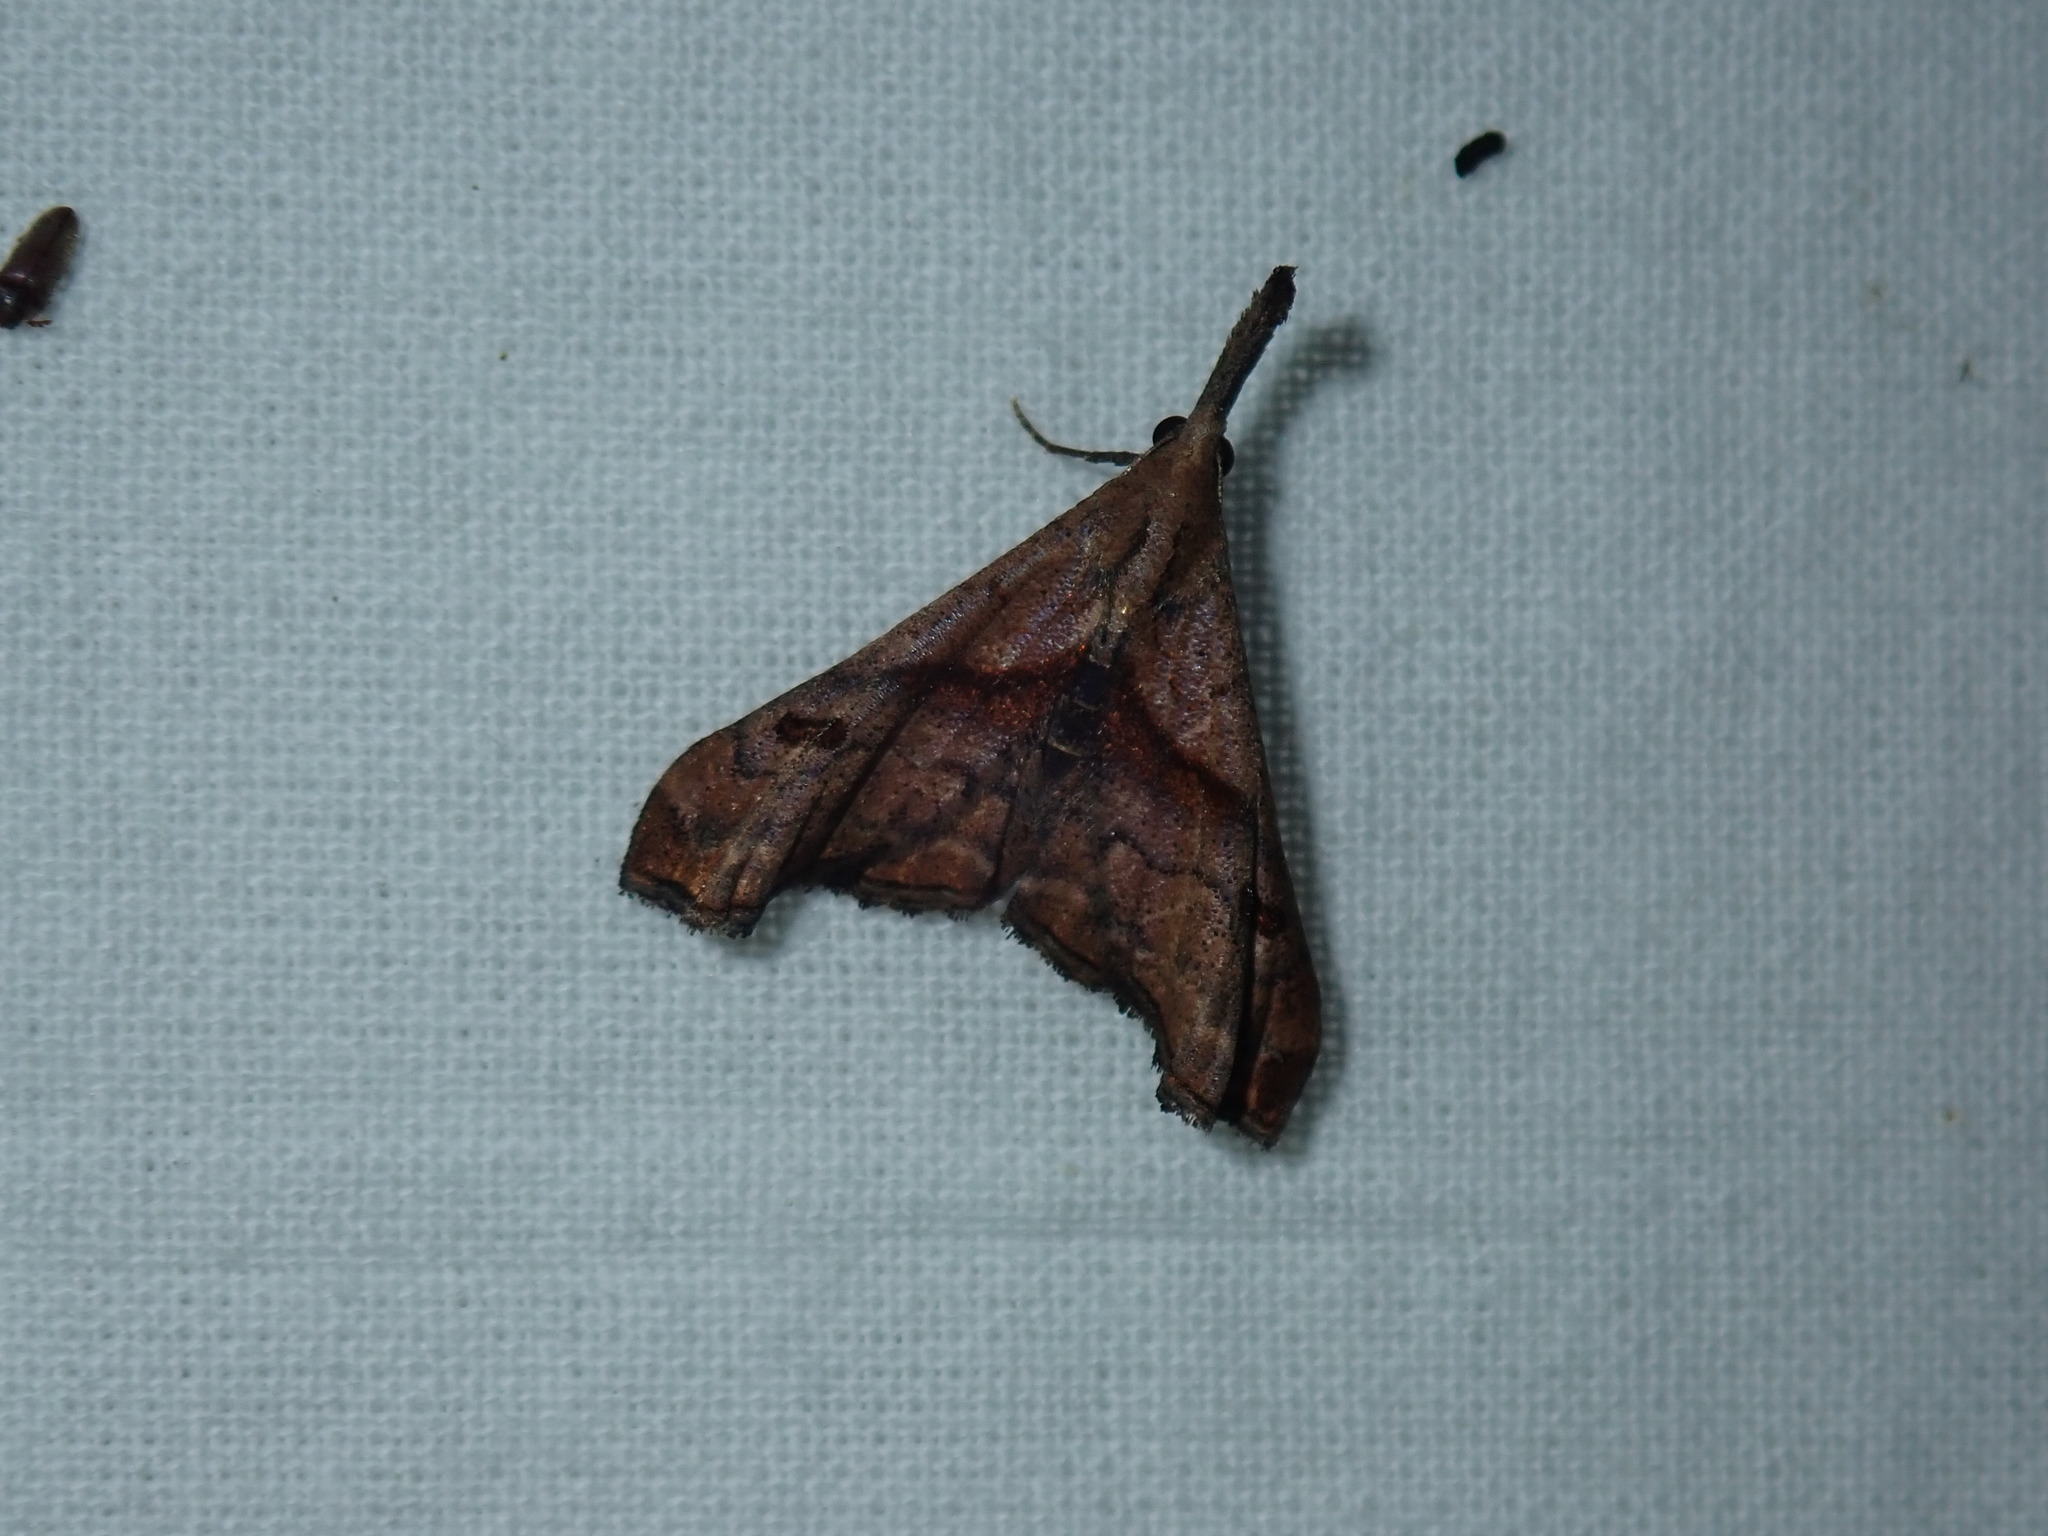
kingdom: Animalia
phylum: Arthropoda
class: Insecta
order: Lepidoptera
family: Erebidae
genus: Palthis
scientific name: Palthis angulalis
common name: Dark-spotted palthis moth
